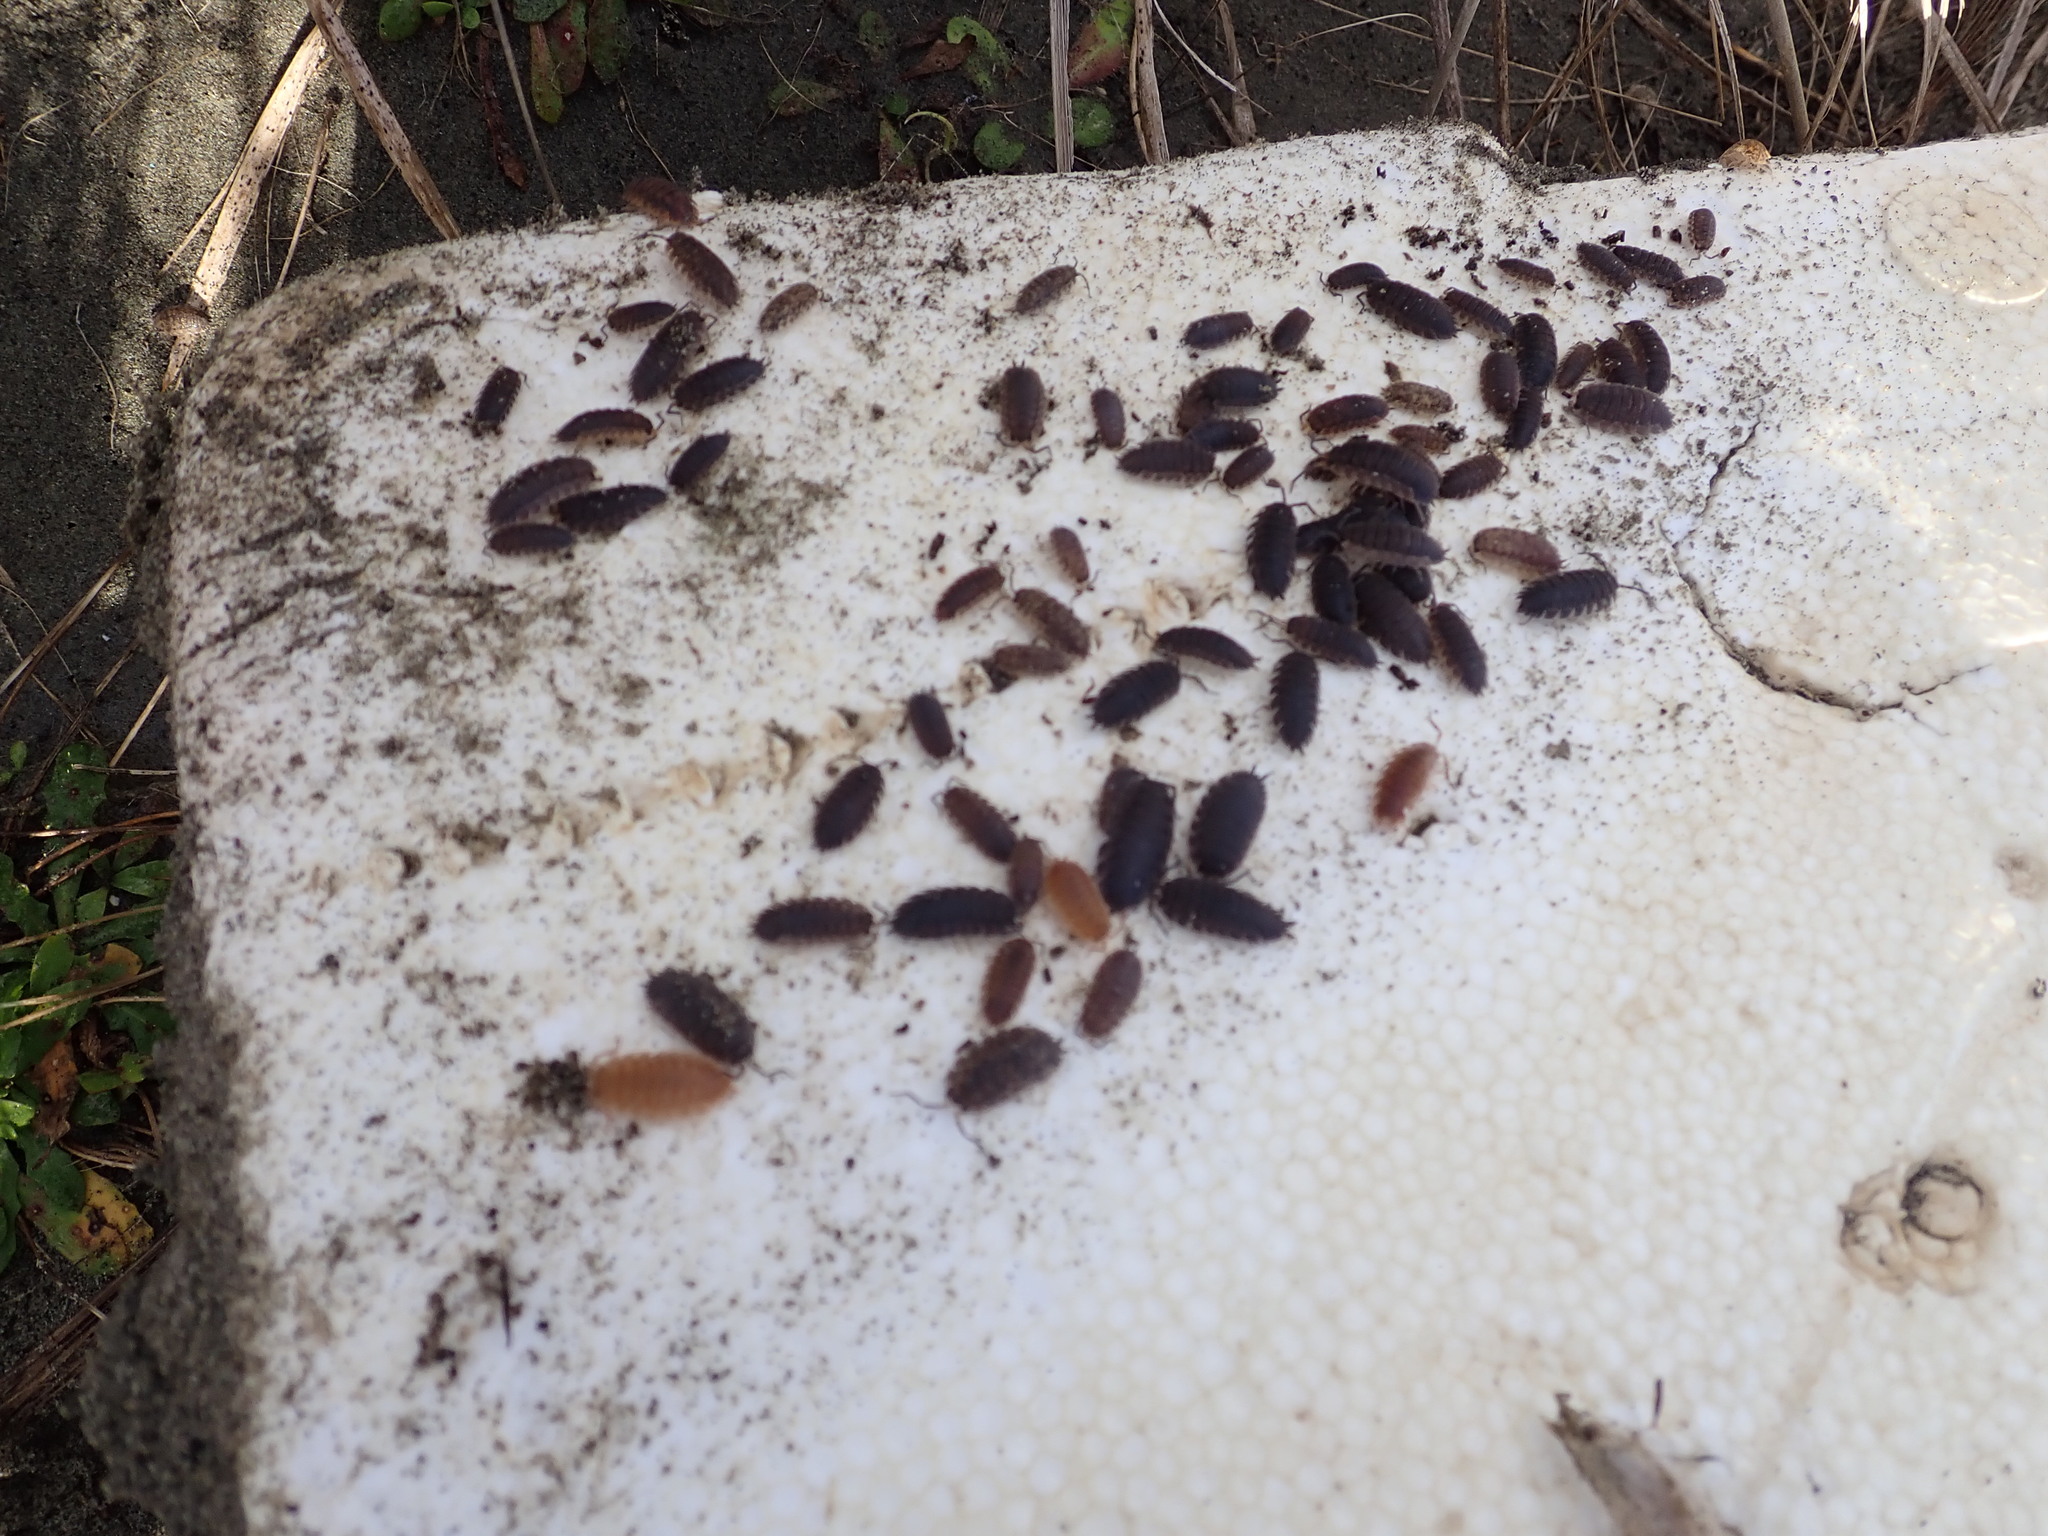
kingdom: Animalia
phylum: Arthropoda
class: Malacostraca
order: Isopoda
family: Porcellionidae
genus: Porcellio
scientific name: Porcellio scaber
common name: Common rough woodlouse
